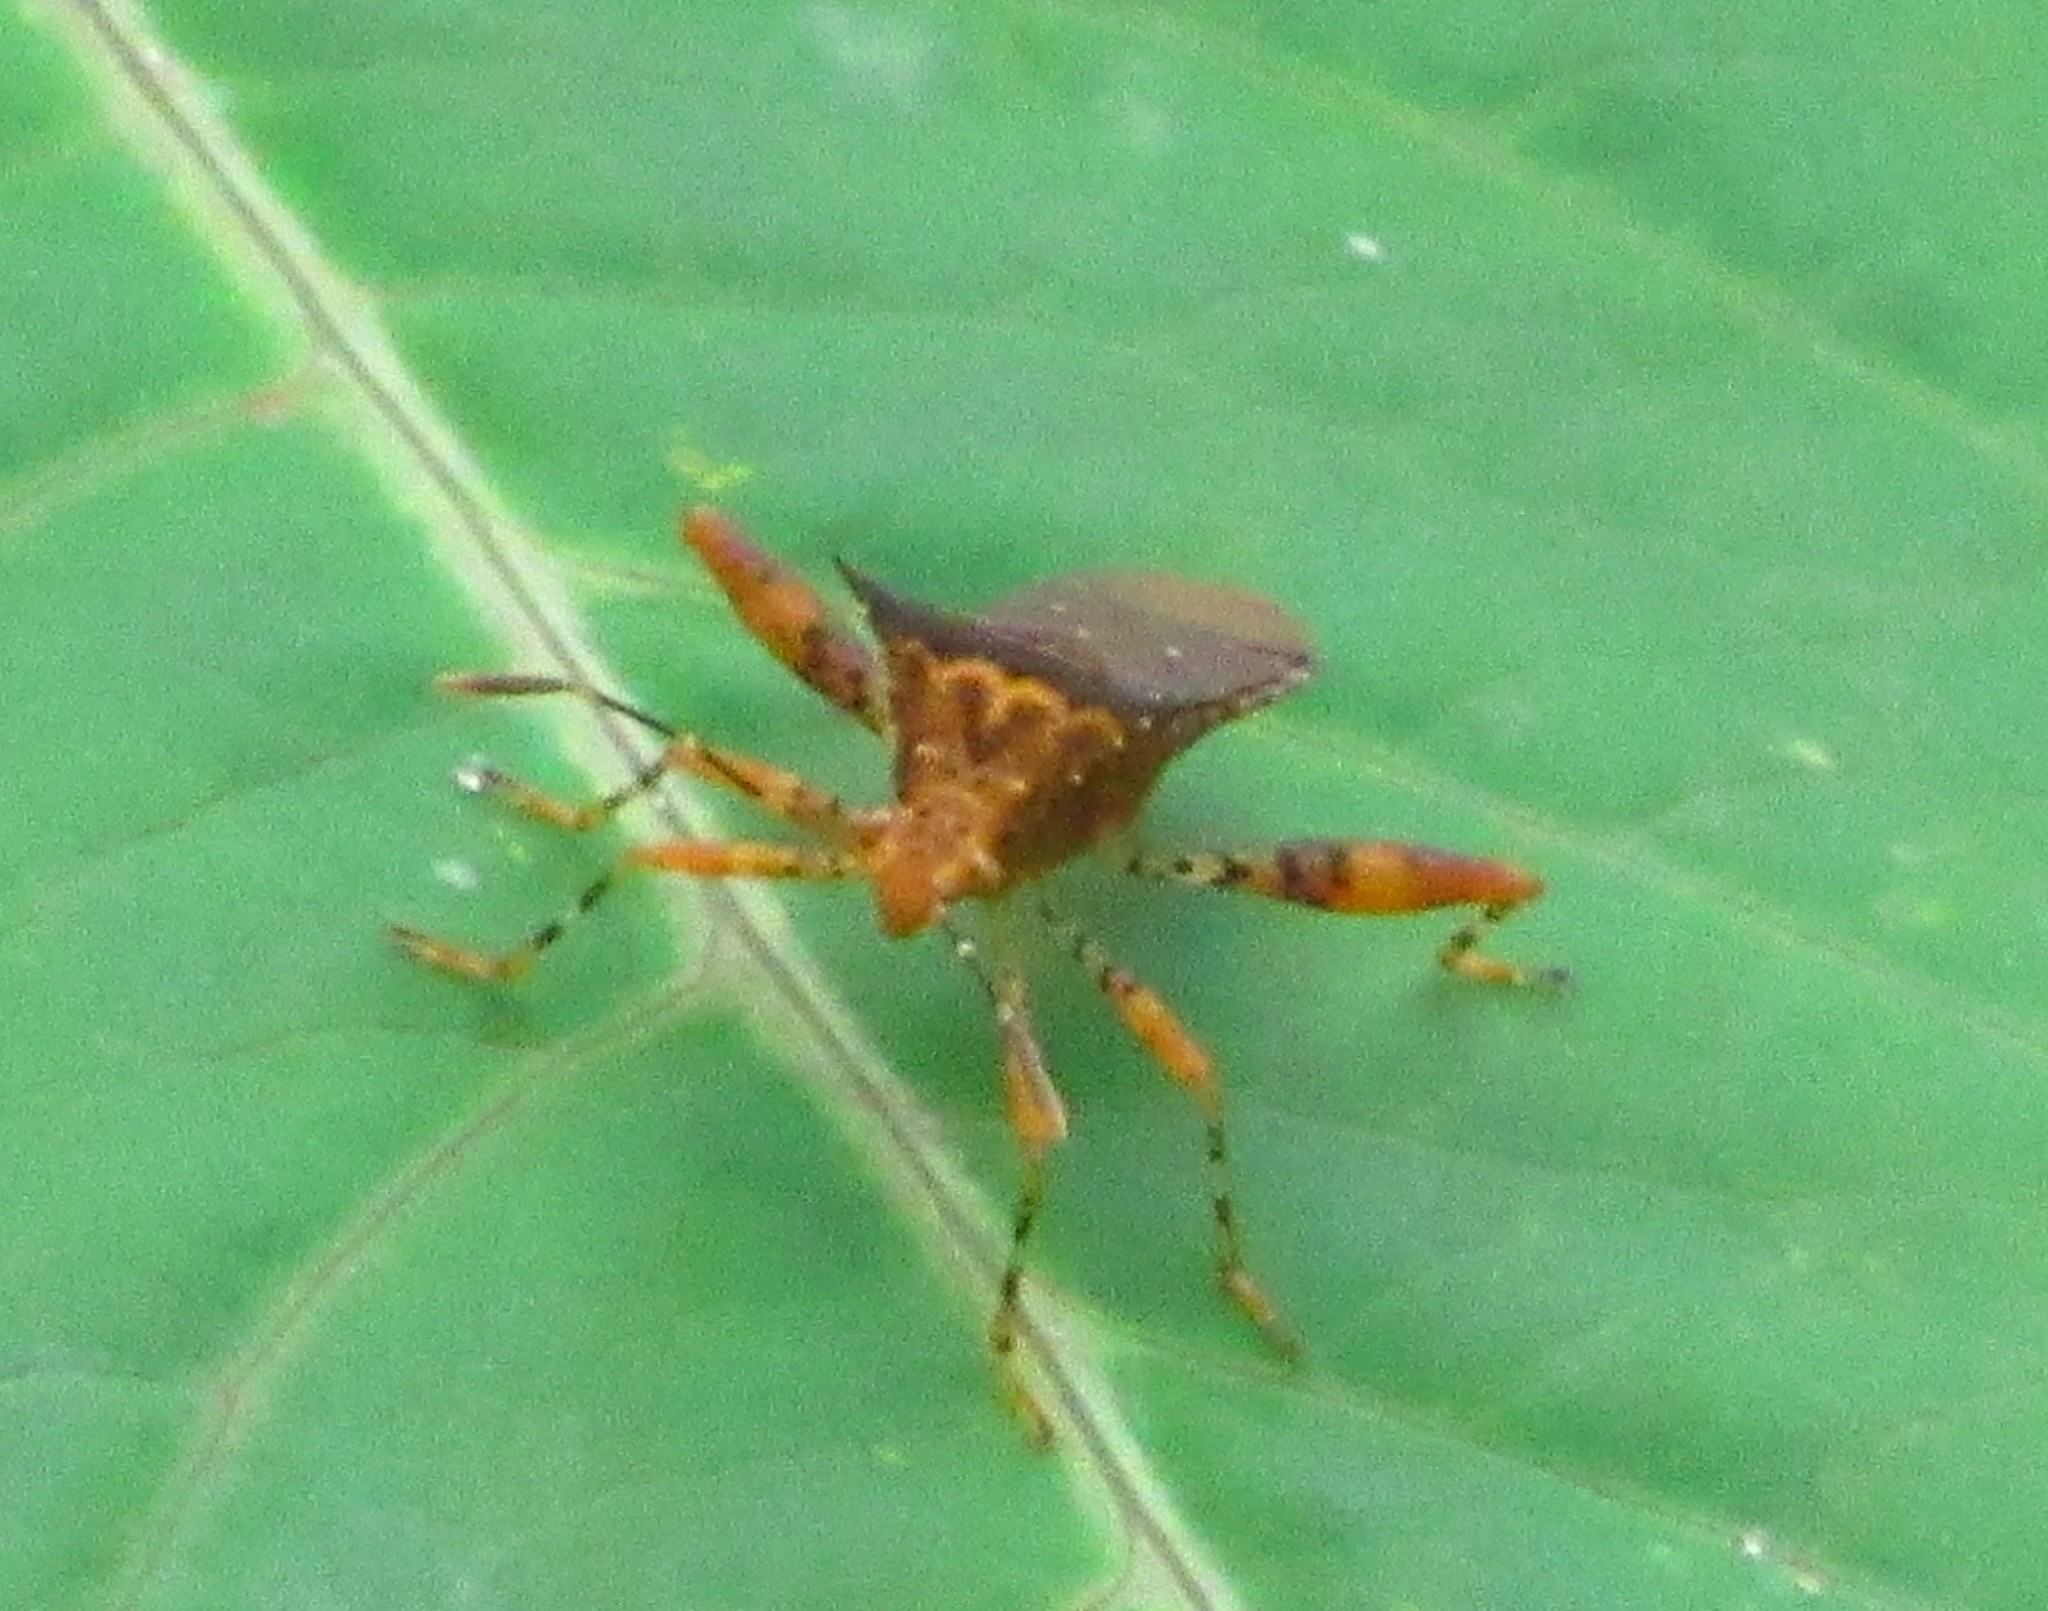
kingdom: Animalia
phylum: Arthropoda
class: Insecta
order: Hemiptera
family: Coreidae
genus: Zicca
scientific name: Zicca consobrina
